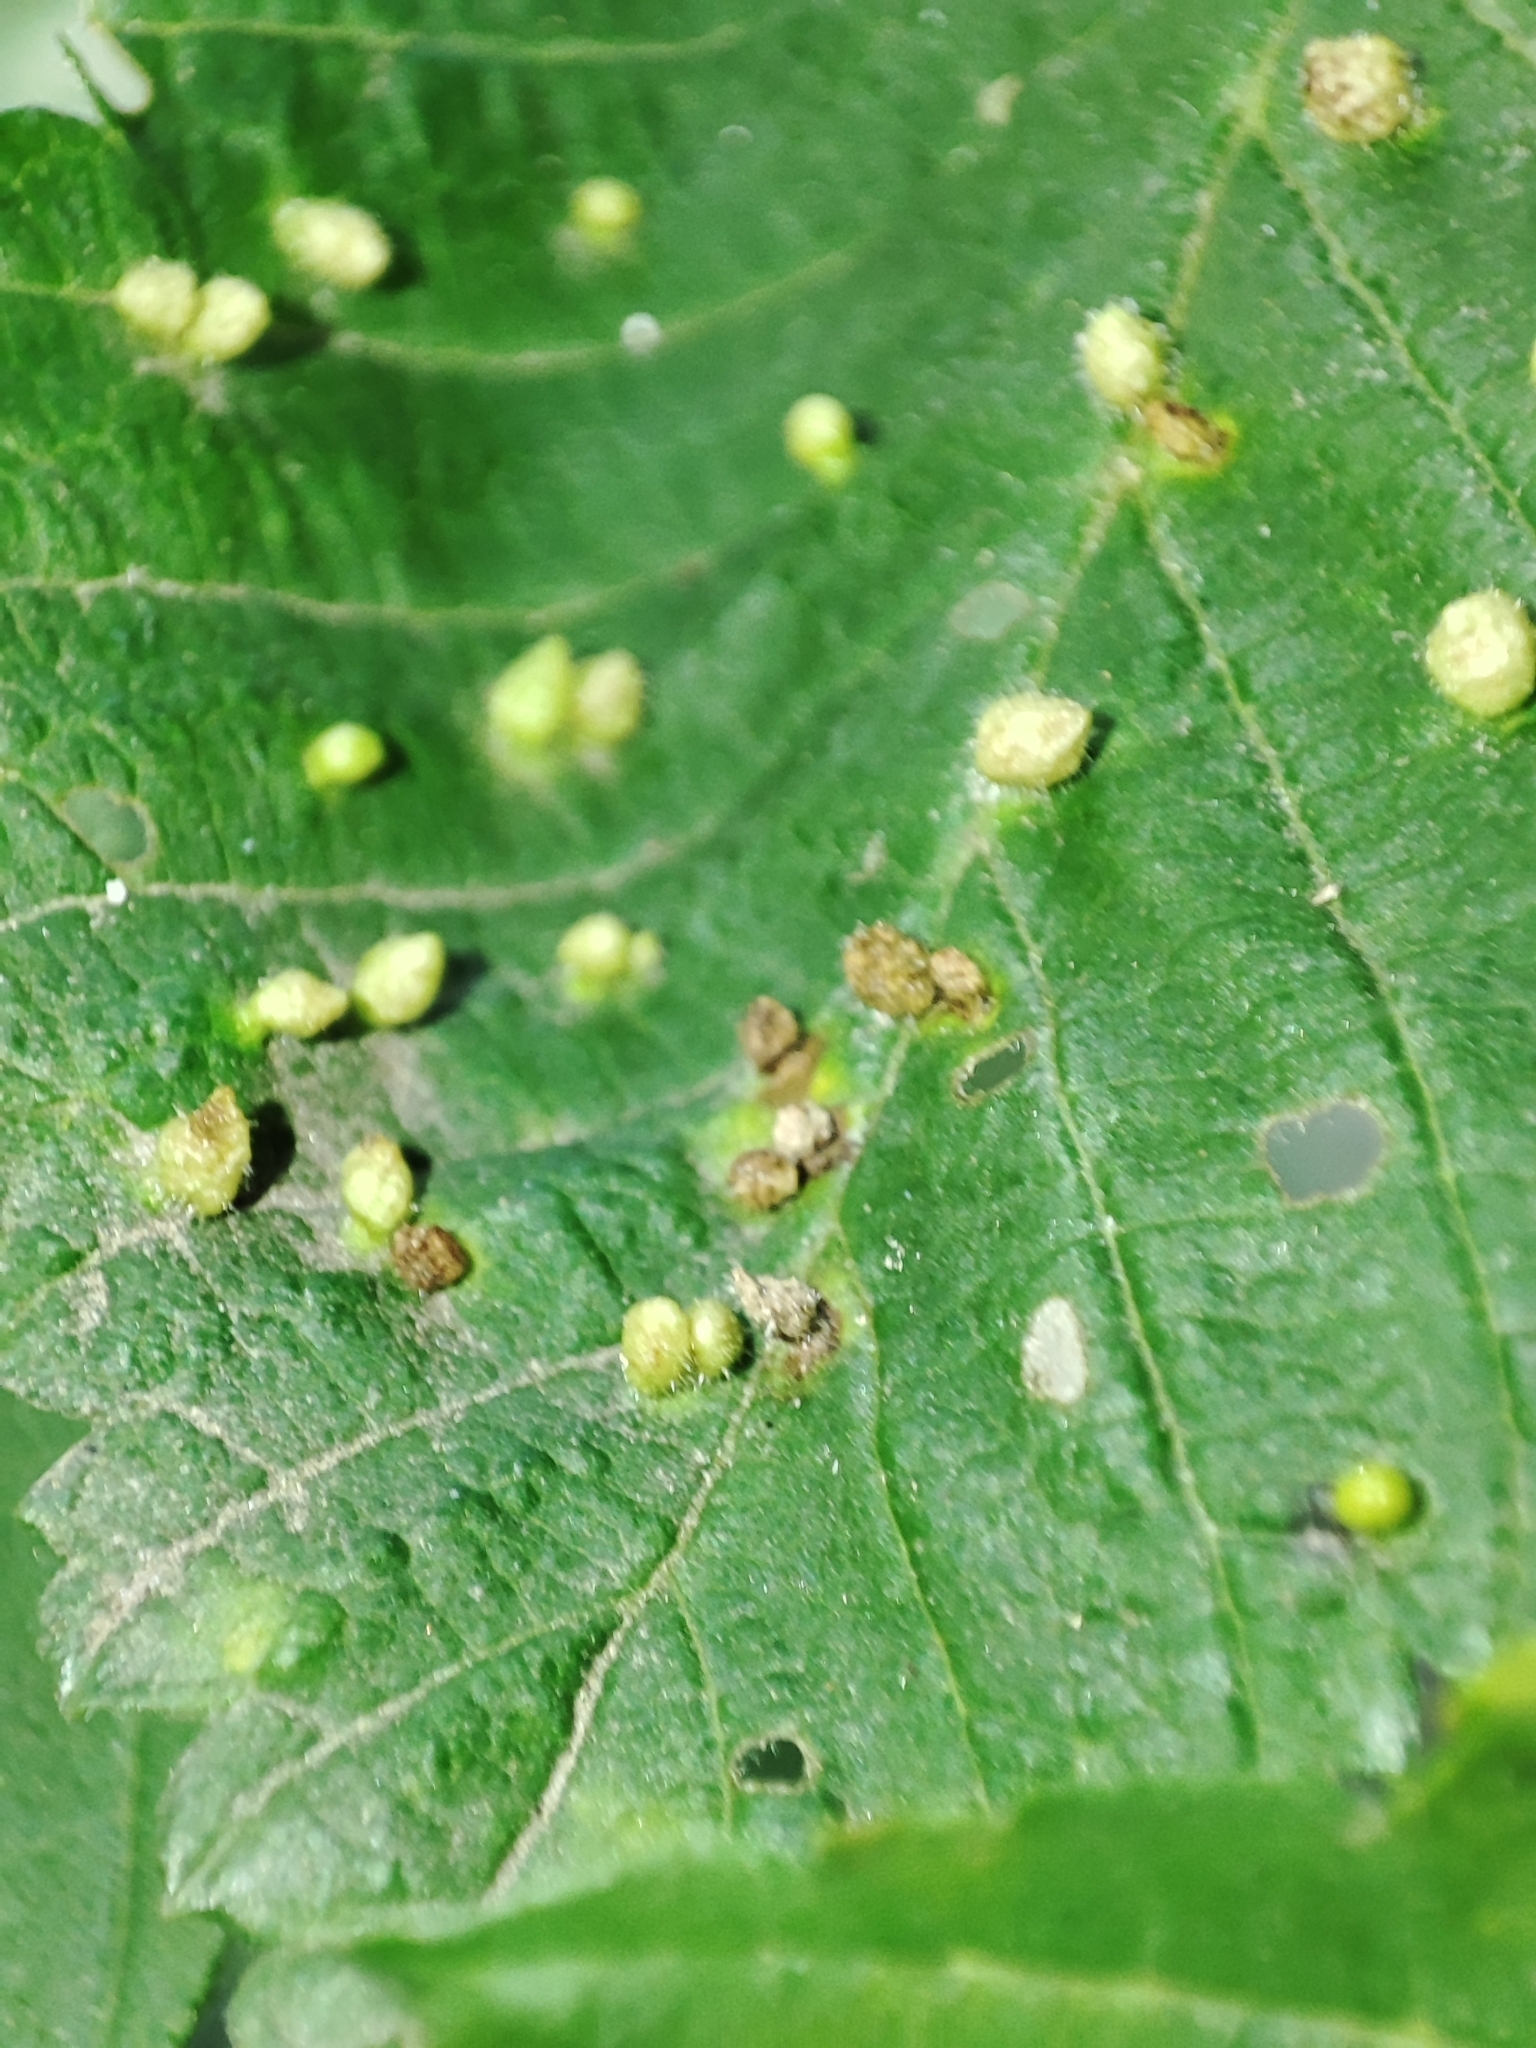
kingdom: Animalia
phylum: Arthropoda
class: Arachnida
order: Trombidiformes
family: Eriophyidae
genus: Aceria
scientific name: Aceria brevipunctata
